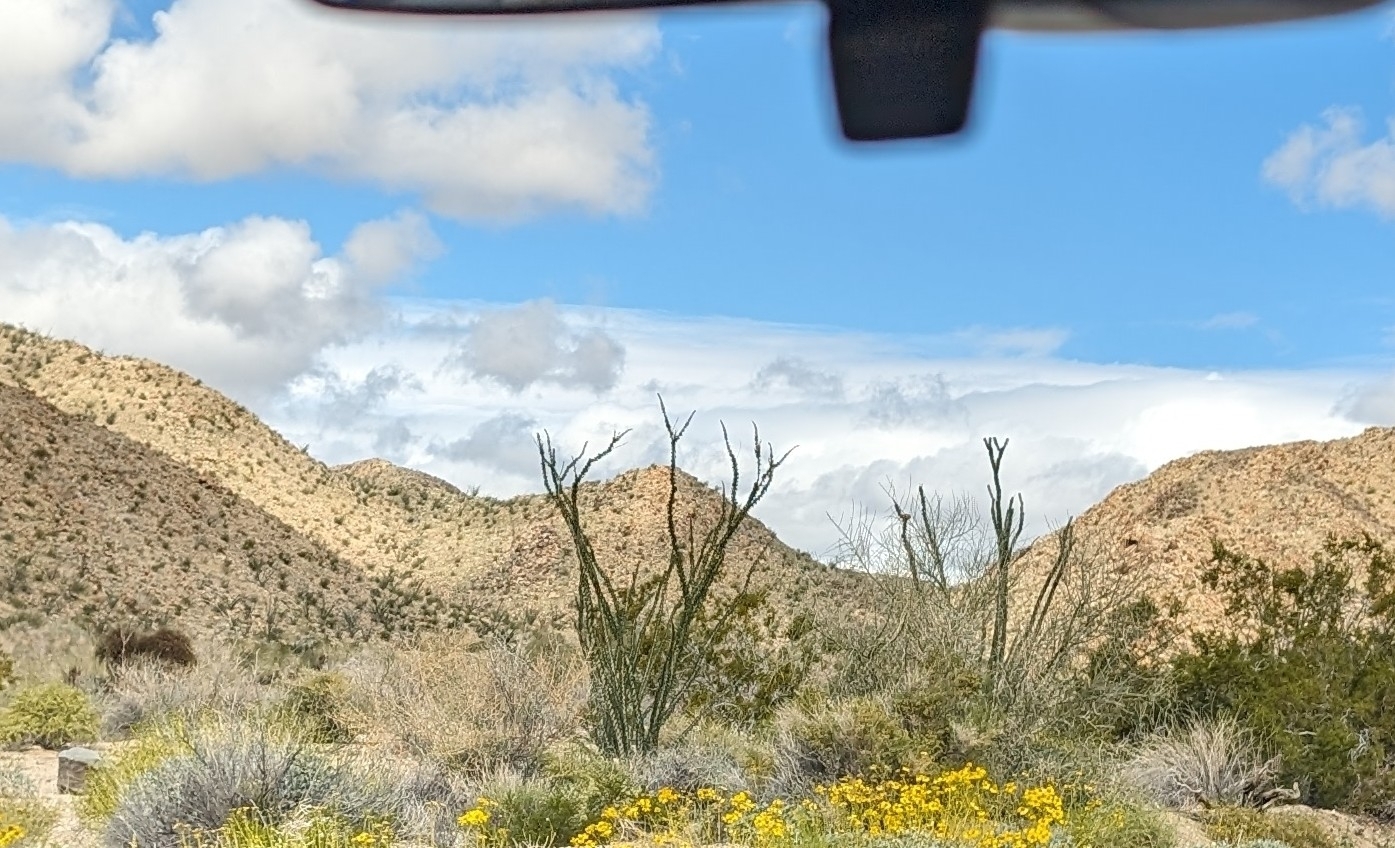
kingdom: Plantae
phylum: Tracheophyta
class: Magnoliopsida
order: Ericales
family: Fouquieriaceae
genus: Fouquieria
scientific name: Fouquieria splendens
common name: Vine-cactus
